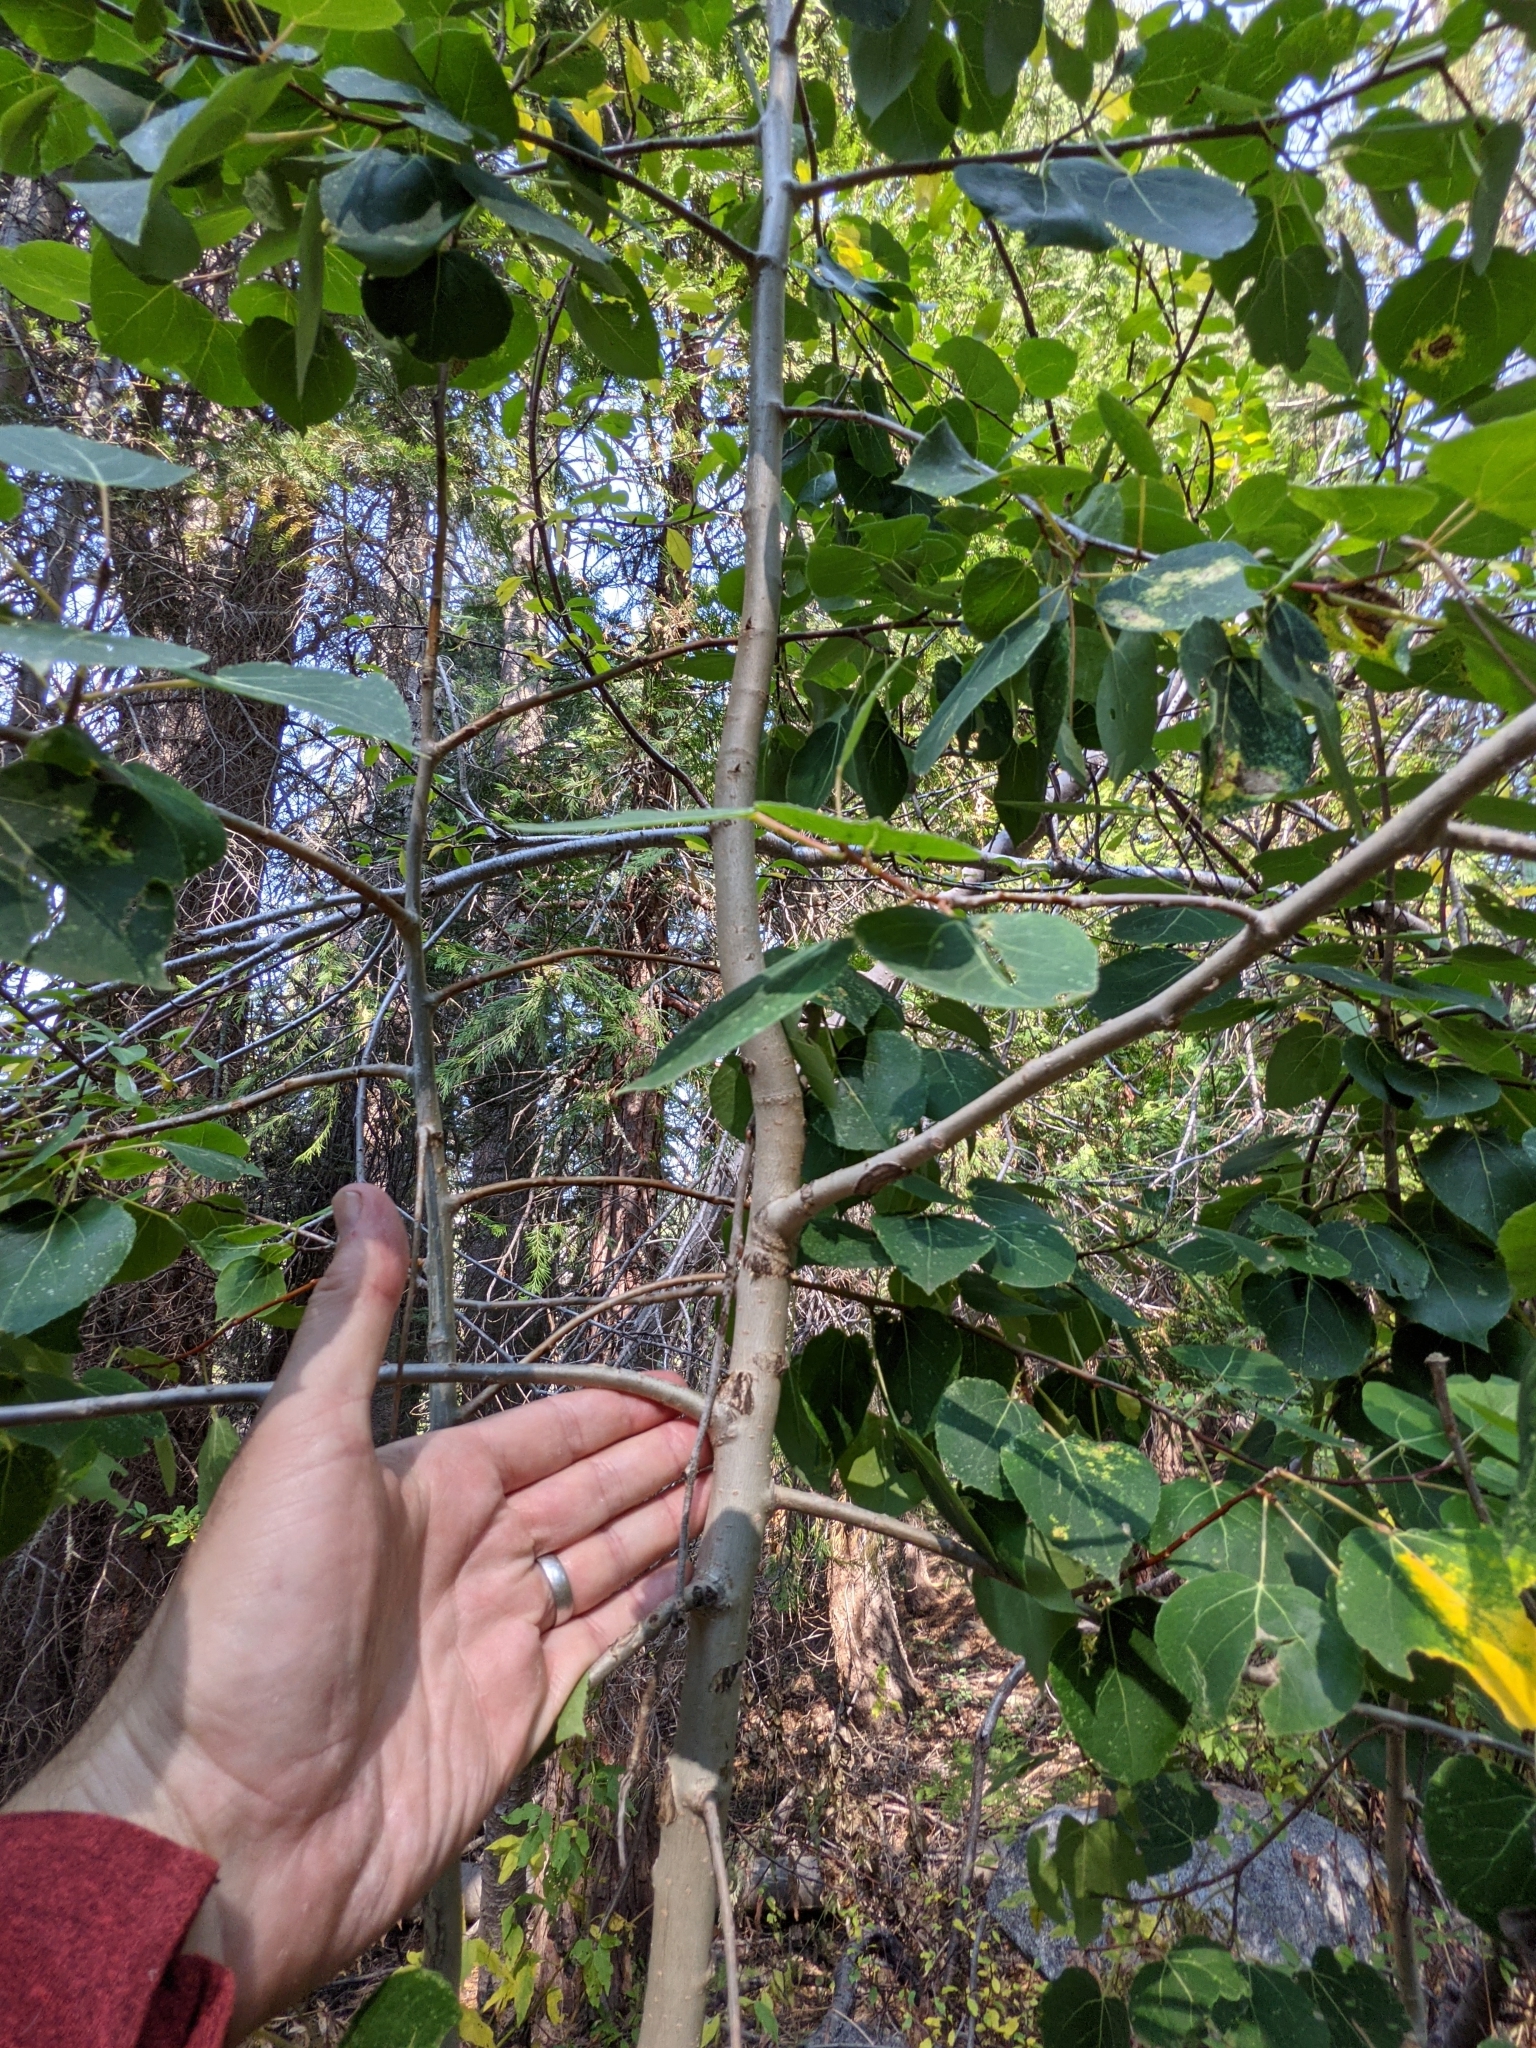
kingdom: Plantae
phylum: Tracheophyta
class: Magnoliopsida
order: Malpighiales
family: Salicaceae
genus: Populus
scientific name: Populus tremuloides
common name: Quaking aspen
